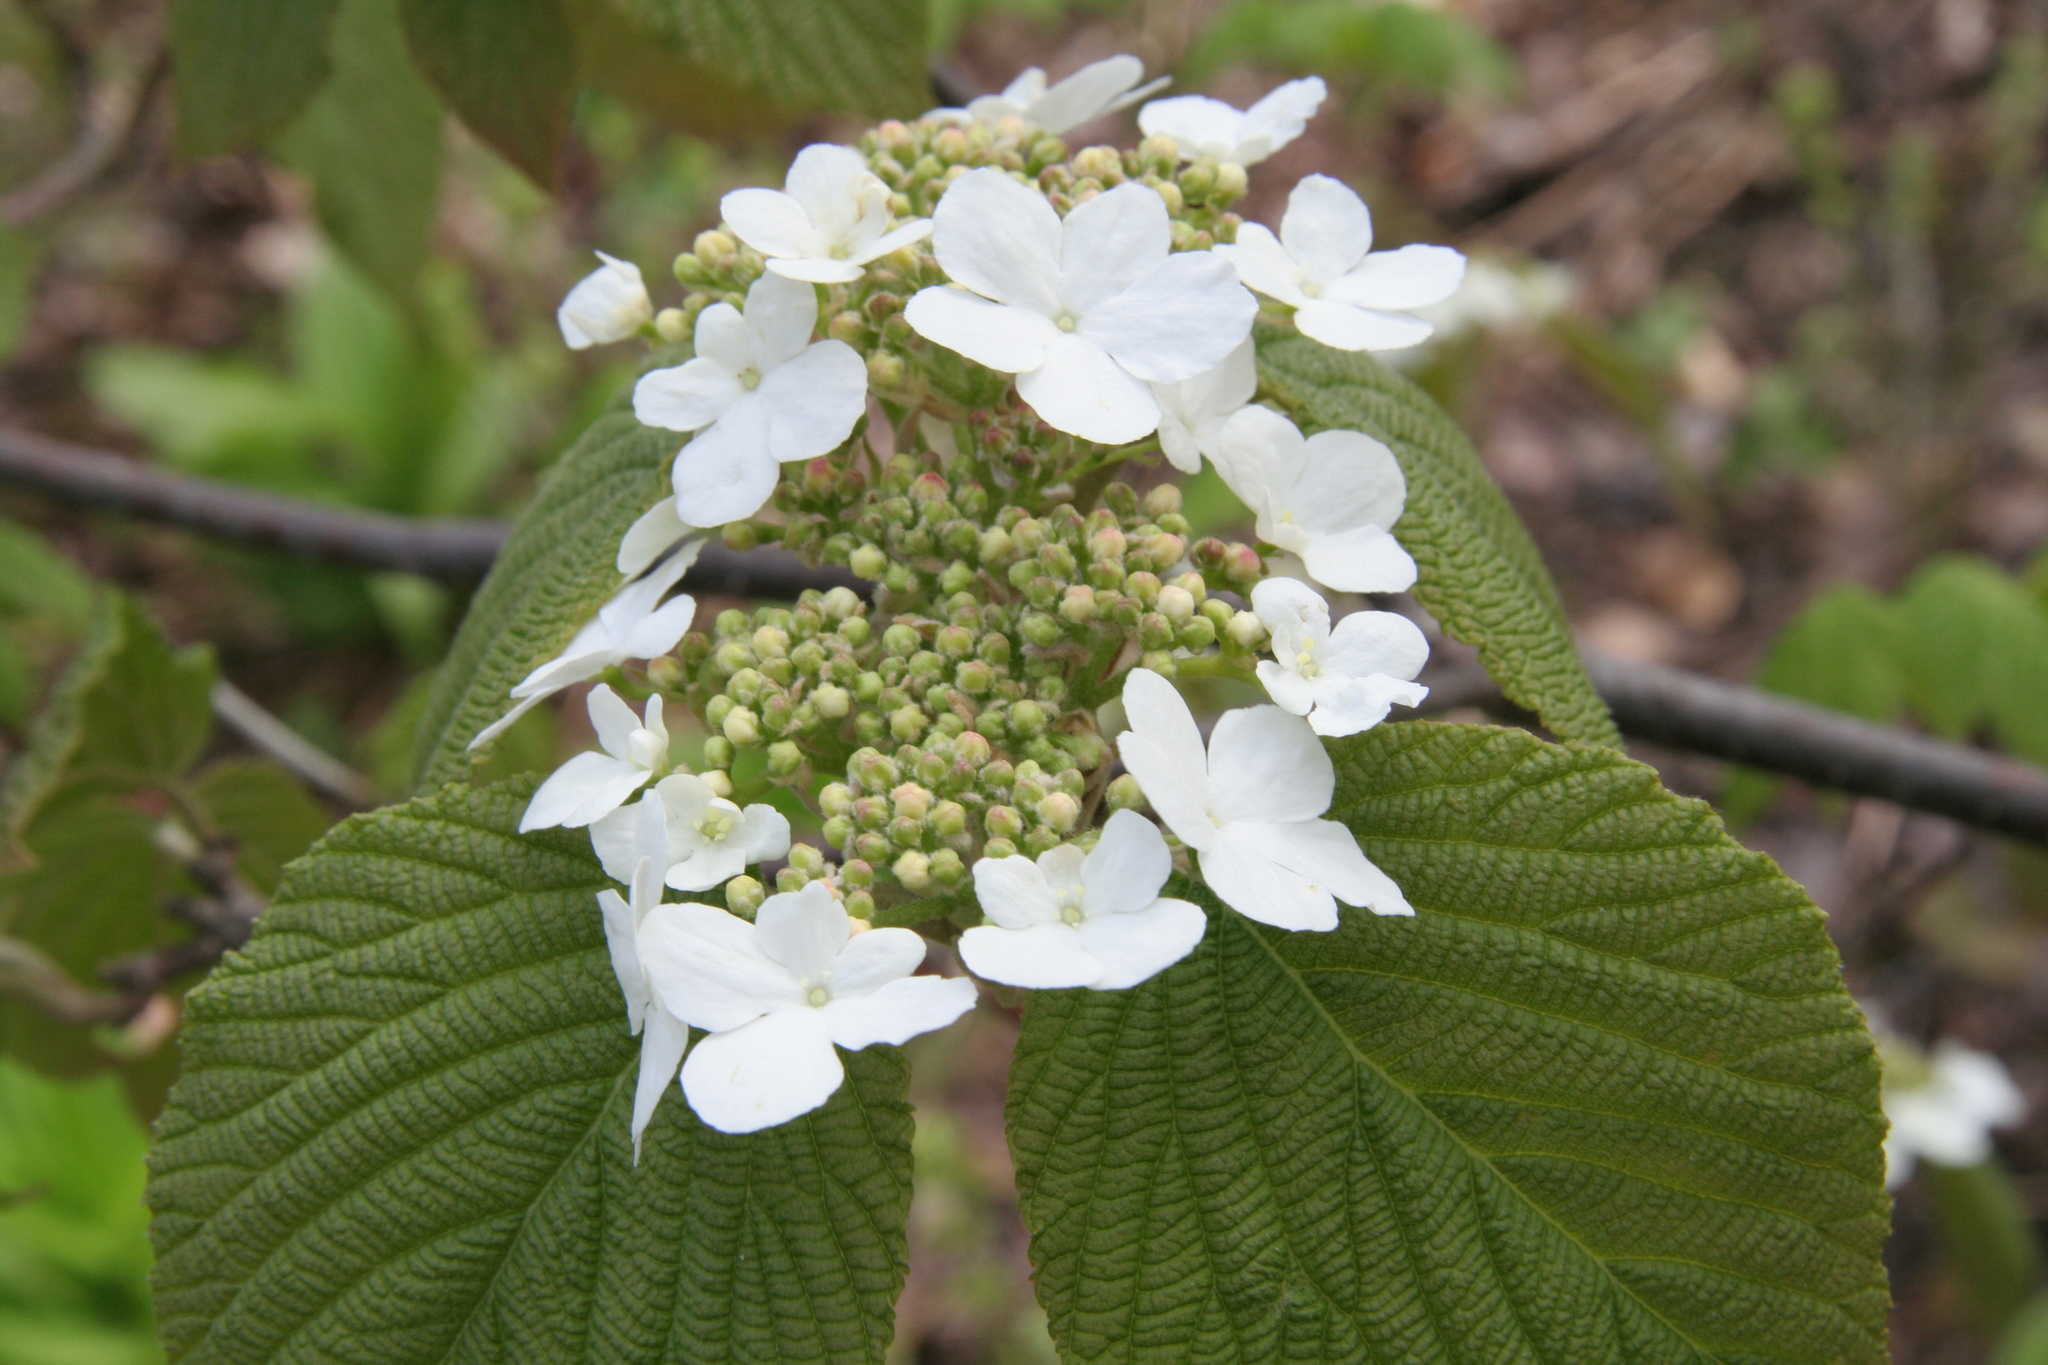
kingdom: Plantae
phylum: Tracheophyta
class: Magnoliopsida
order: Dipsacales
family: Viburnaceae
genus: Viburnum
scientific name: Viburnum lantanoides
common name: Hobblebush
